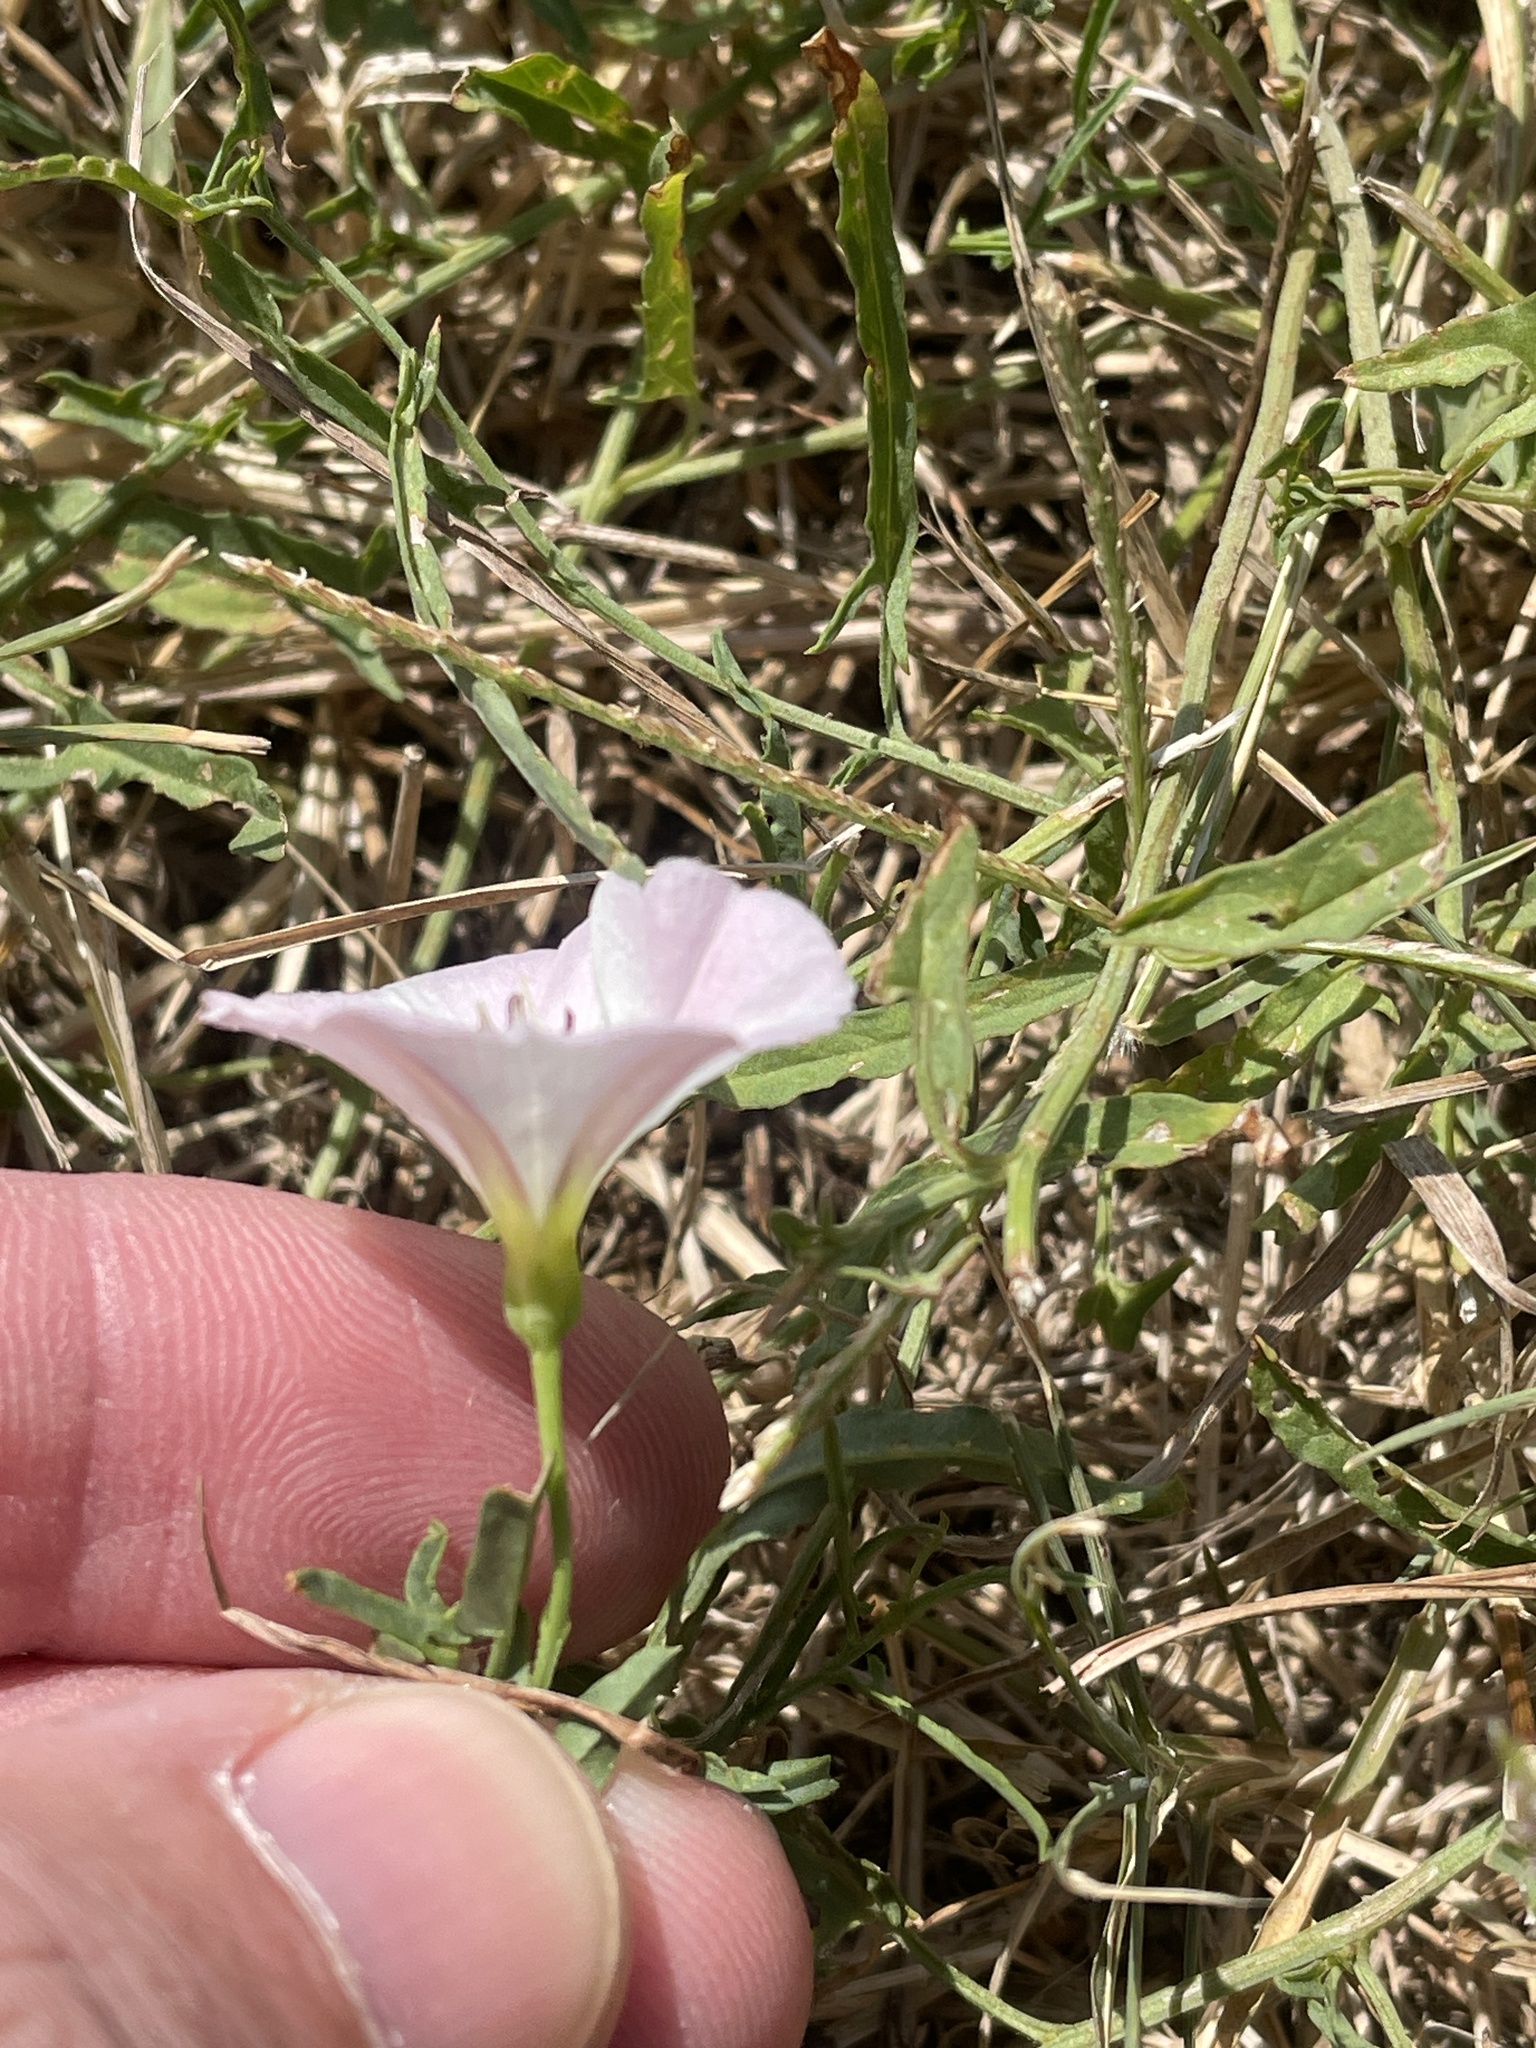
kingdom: Plantae
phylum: Tracheophyta
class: Magnoliopsida
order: Solanales
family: Convolvulaceae
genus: Convolvulus
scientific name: Convolvulus arvensis
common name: Field bindweed
